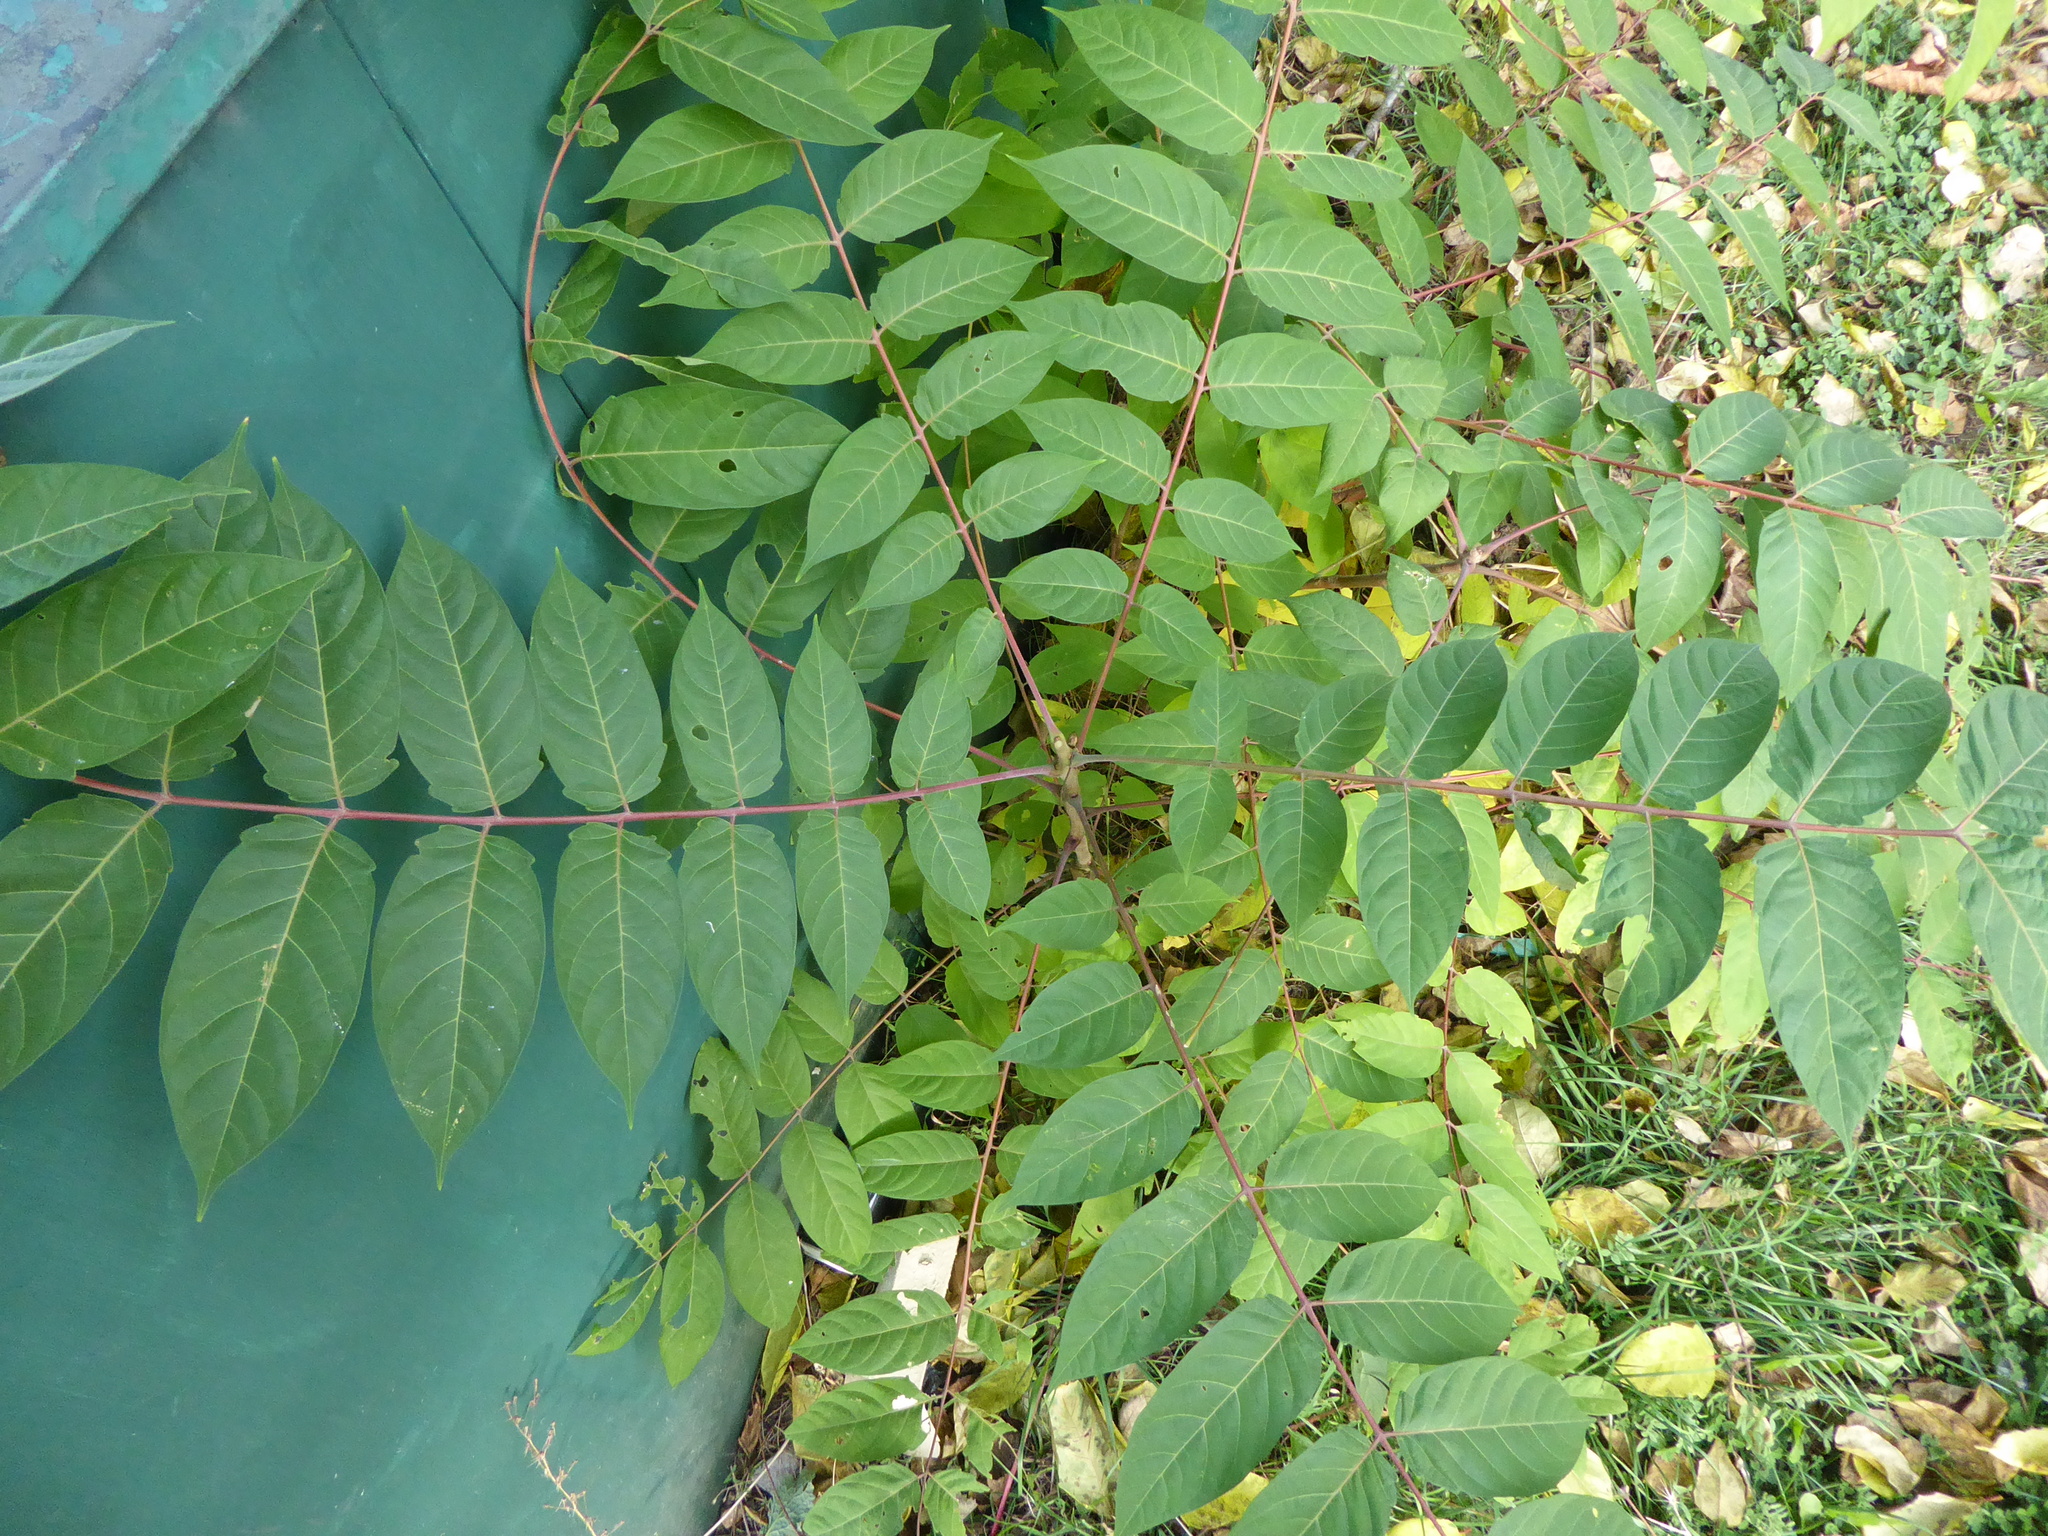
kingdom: Plantae
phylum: Tracheophyta
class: Magnoliopsida
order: Sapindales
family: Simaroubaceae
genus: Ailanthus
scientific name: Ailanthus altissima
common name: Tree-of-heaven
